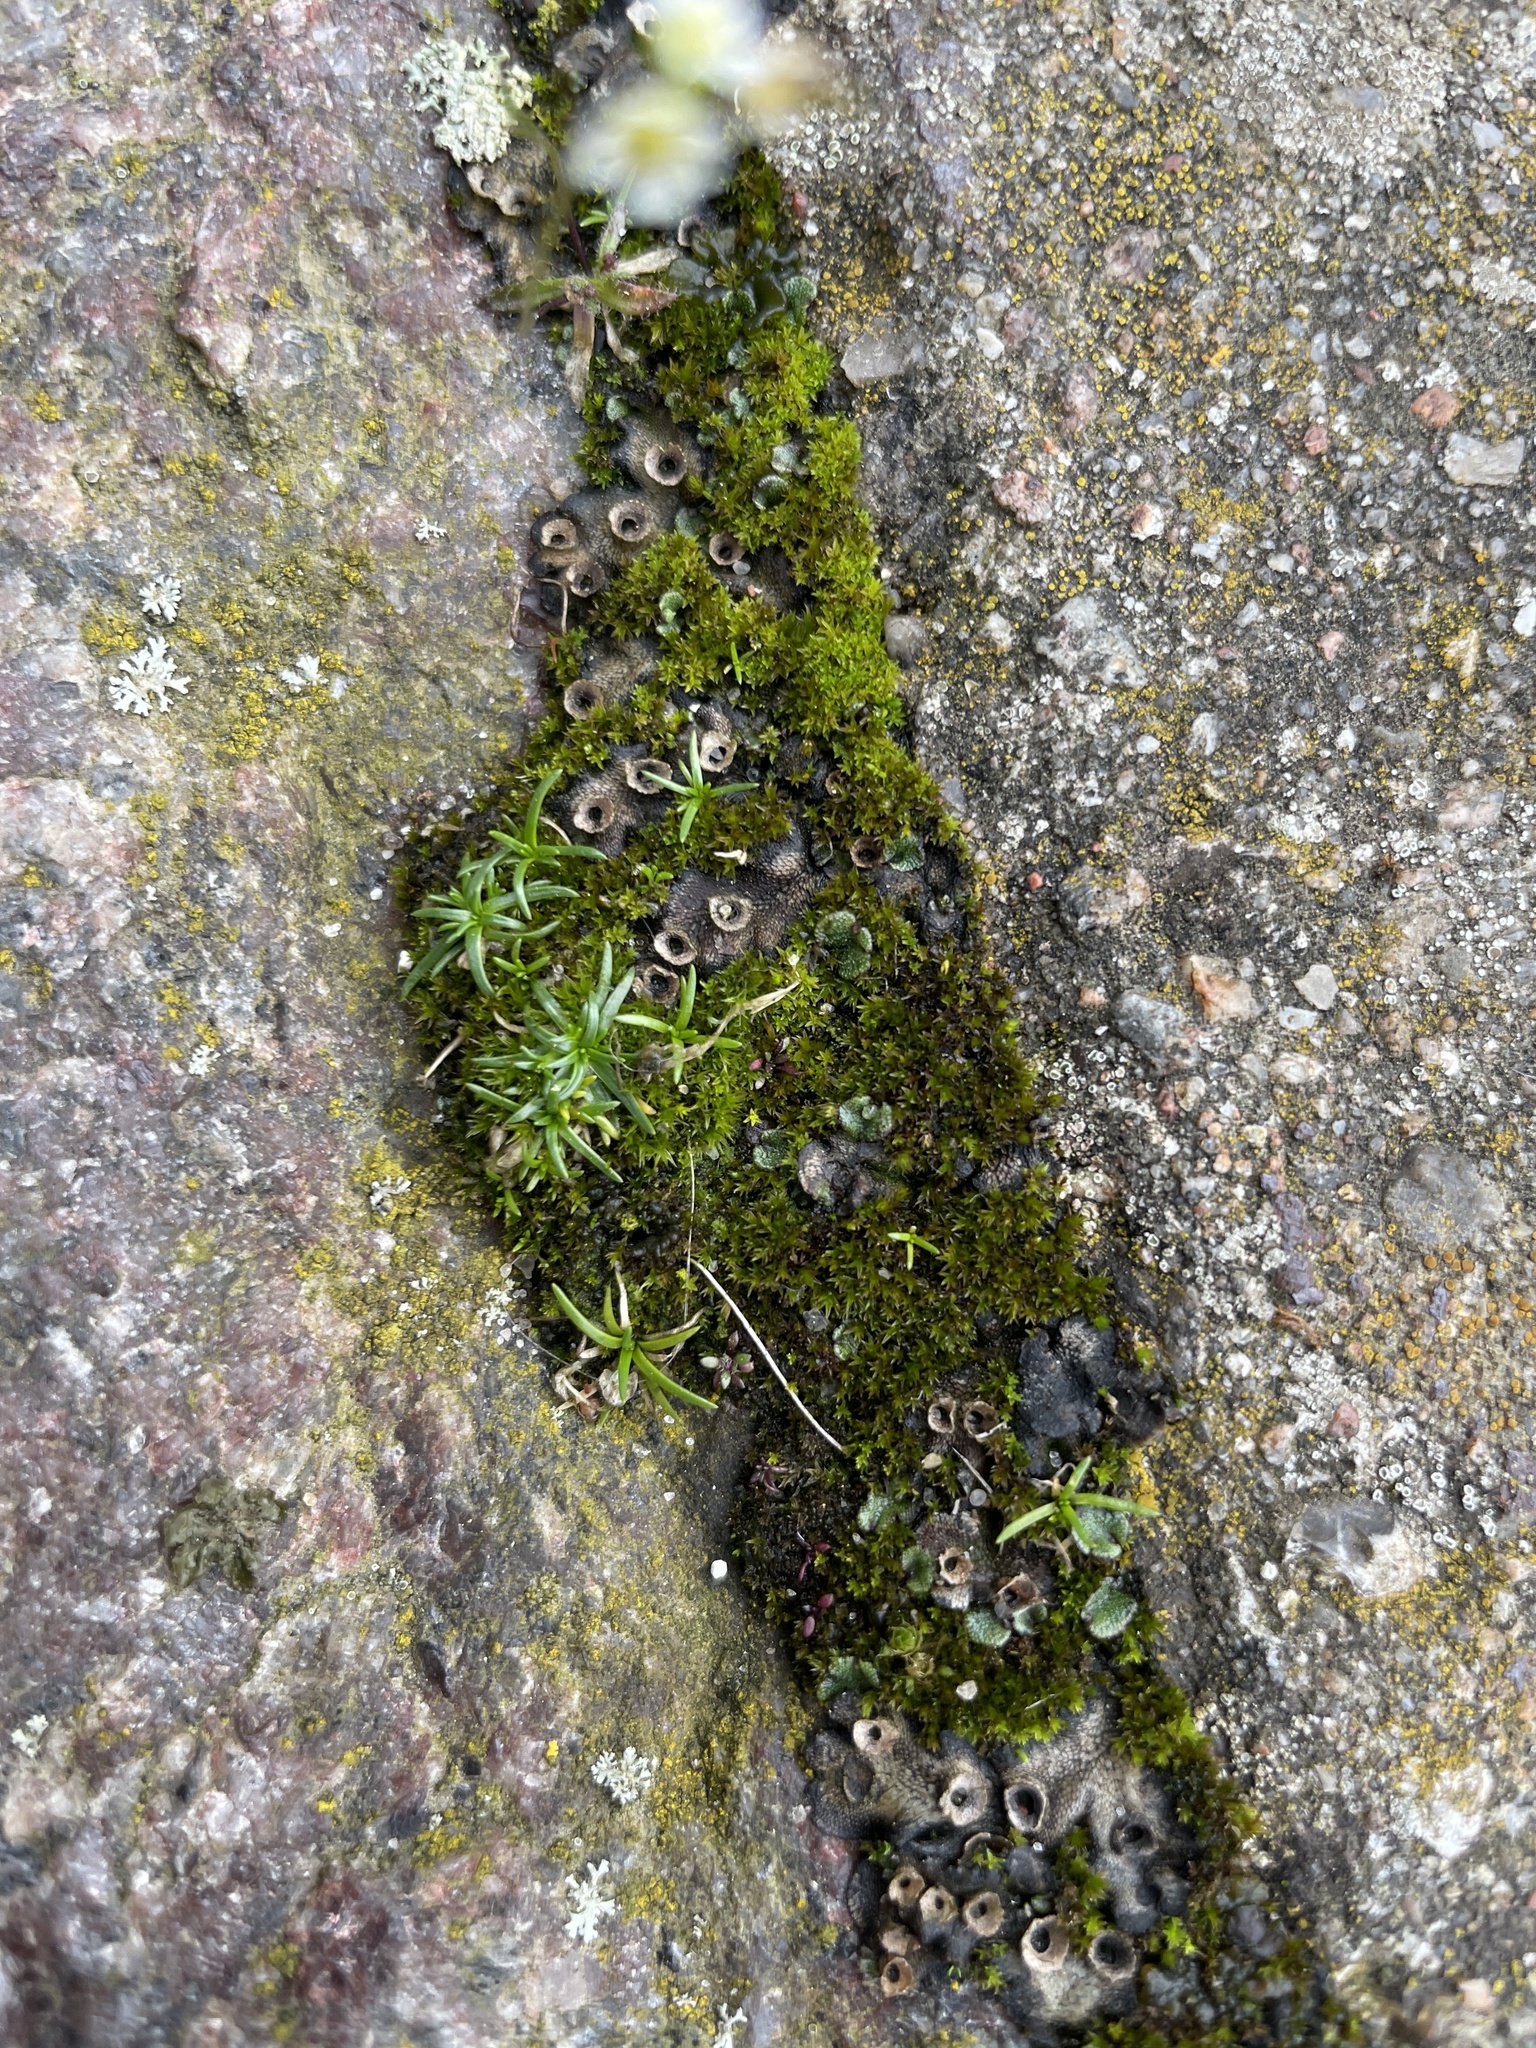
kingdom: Plantae
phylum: Marchantiophyta
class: Marchantiopsida
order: Marchantiales
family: Marchantiaceae
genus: Marchantia
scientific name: Marchantia polymorpha
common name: Common liverwort
